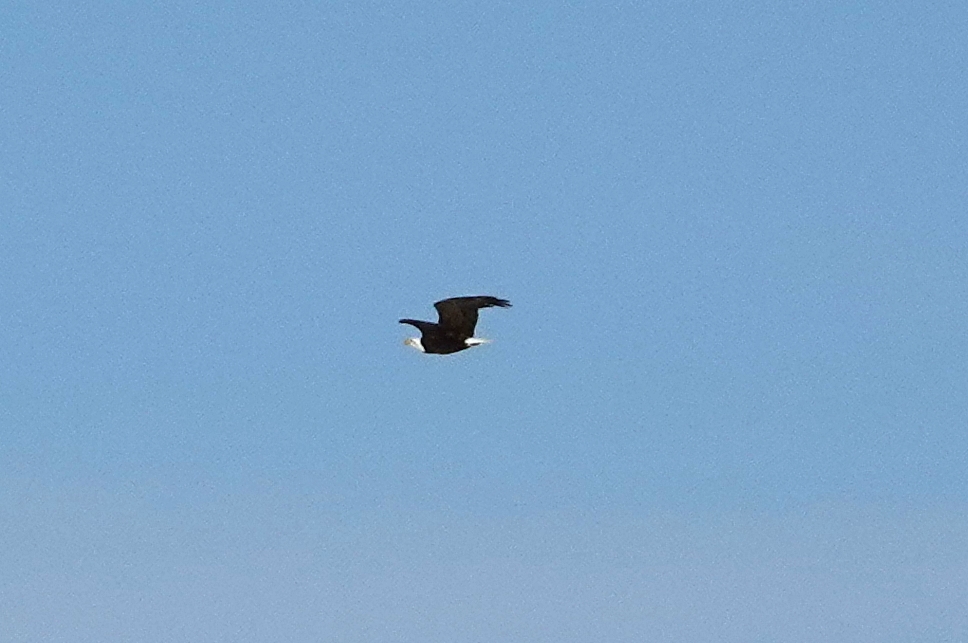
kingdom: Animalia
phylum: Chordata
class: Aves
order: Accipitriformes
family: Accipitridae
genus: Haliaeetus
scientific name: Haliaeetus leucocephalus
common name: Bald eagle
